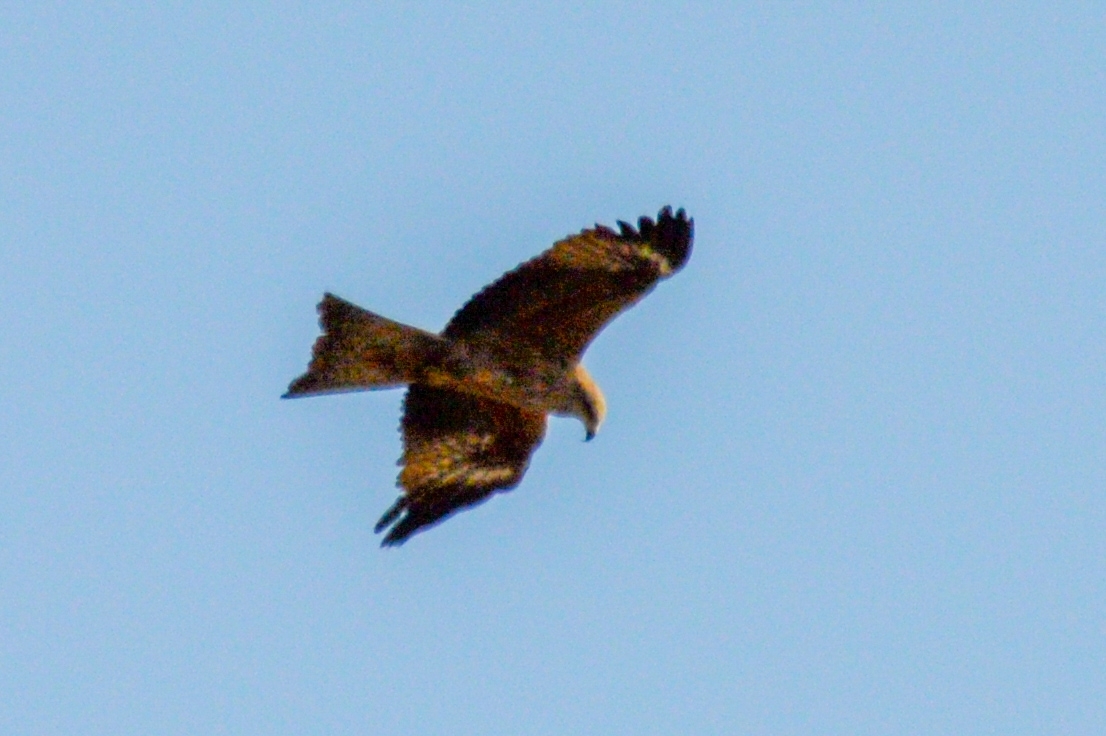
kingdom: Animalia
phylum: Chordata
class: Aves
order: Accipitriformes
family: Accipitridae
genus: Milvus
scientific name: Milvus migrans
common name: Black kite
